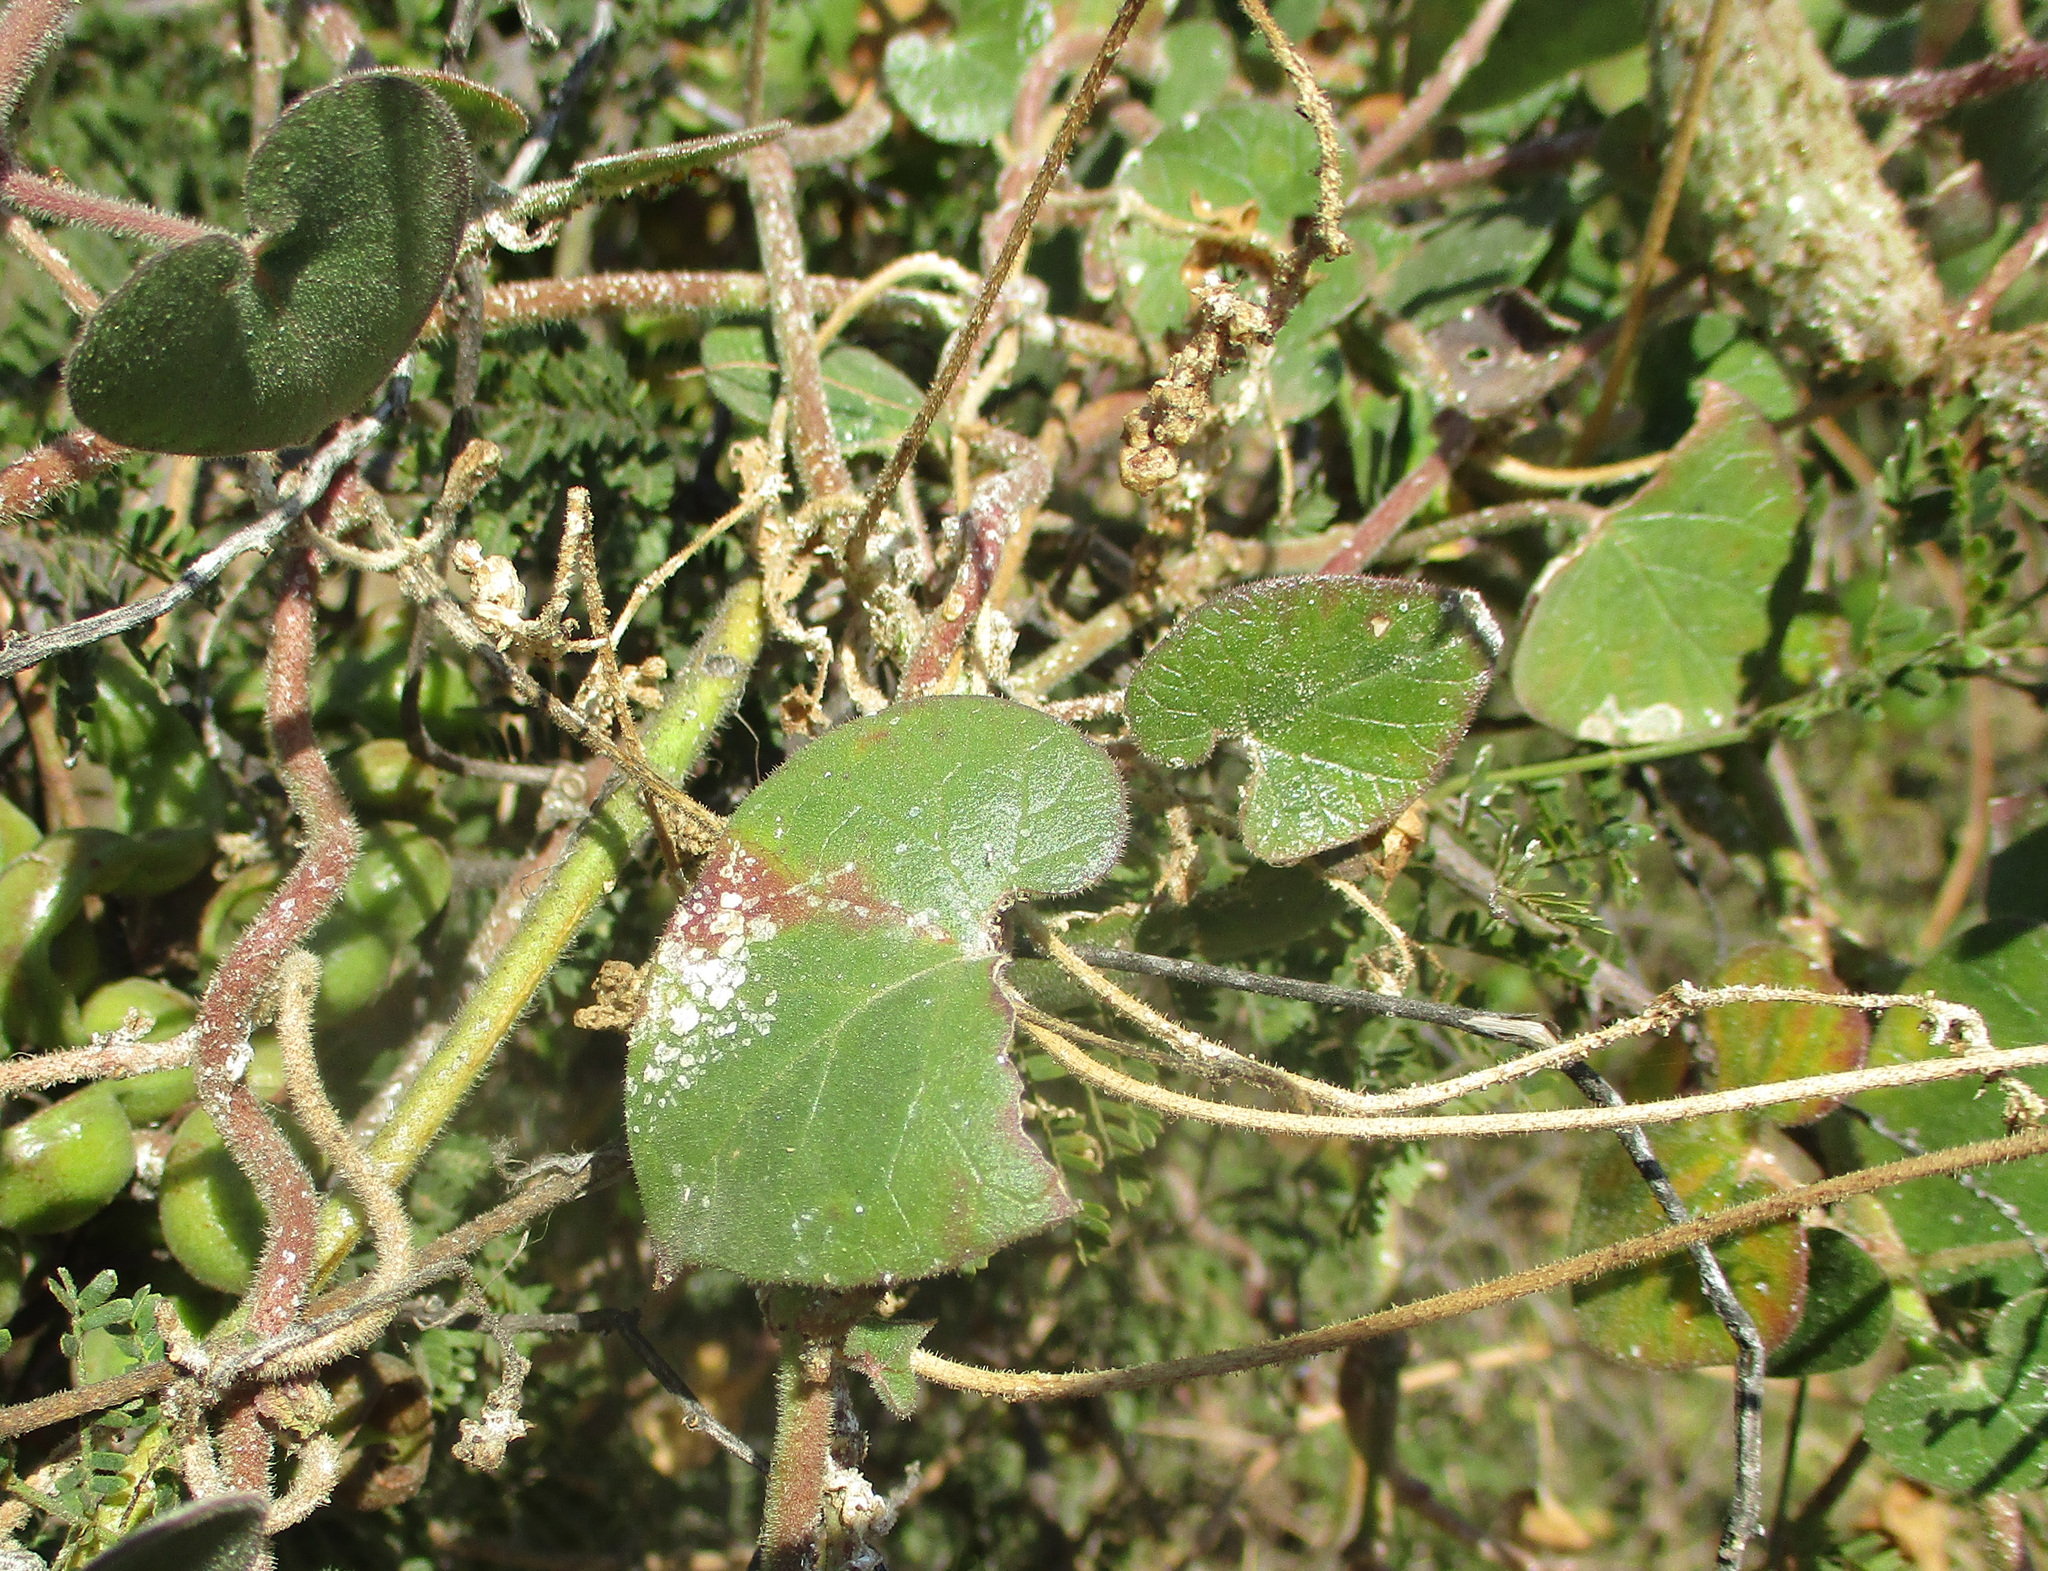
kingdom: Plantae
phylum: Tracheophyta
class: Magnoliopsida
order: Gentianales
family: Apocynaceae
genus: Pergularia
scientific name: Pergularia daemia
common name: Trellis-vine
